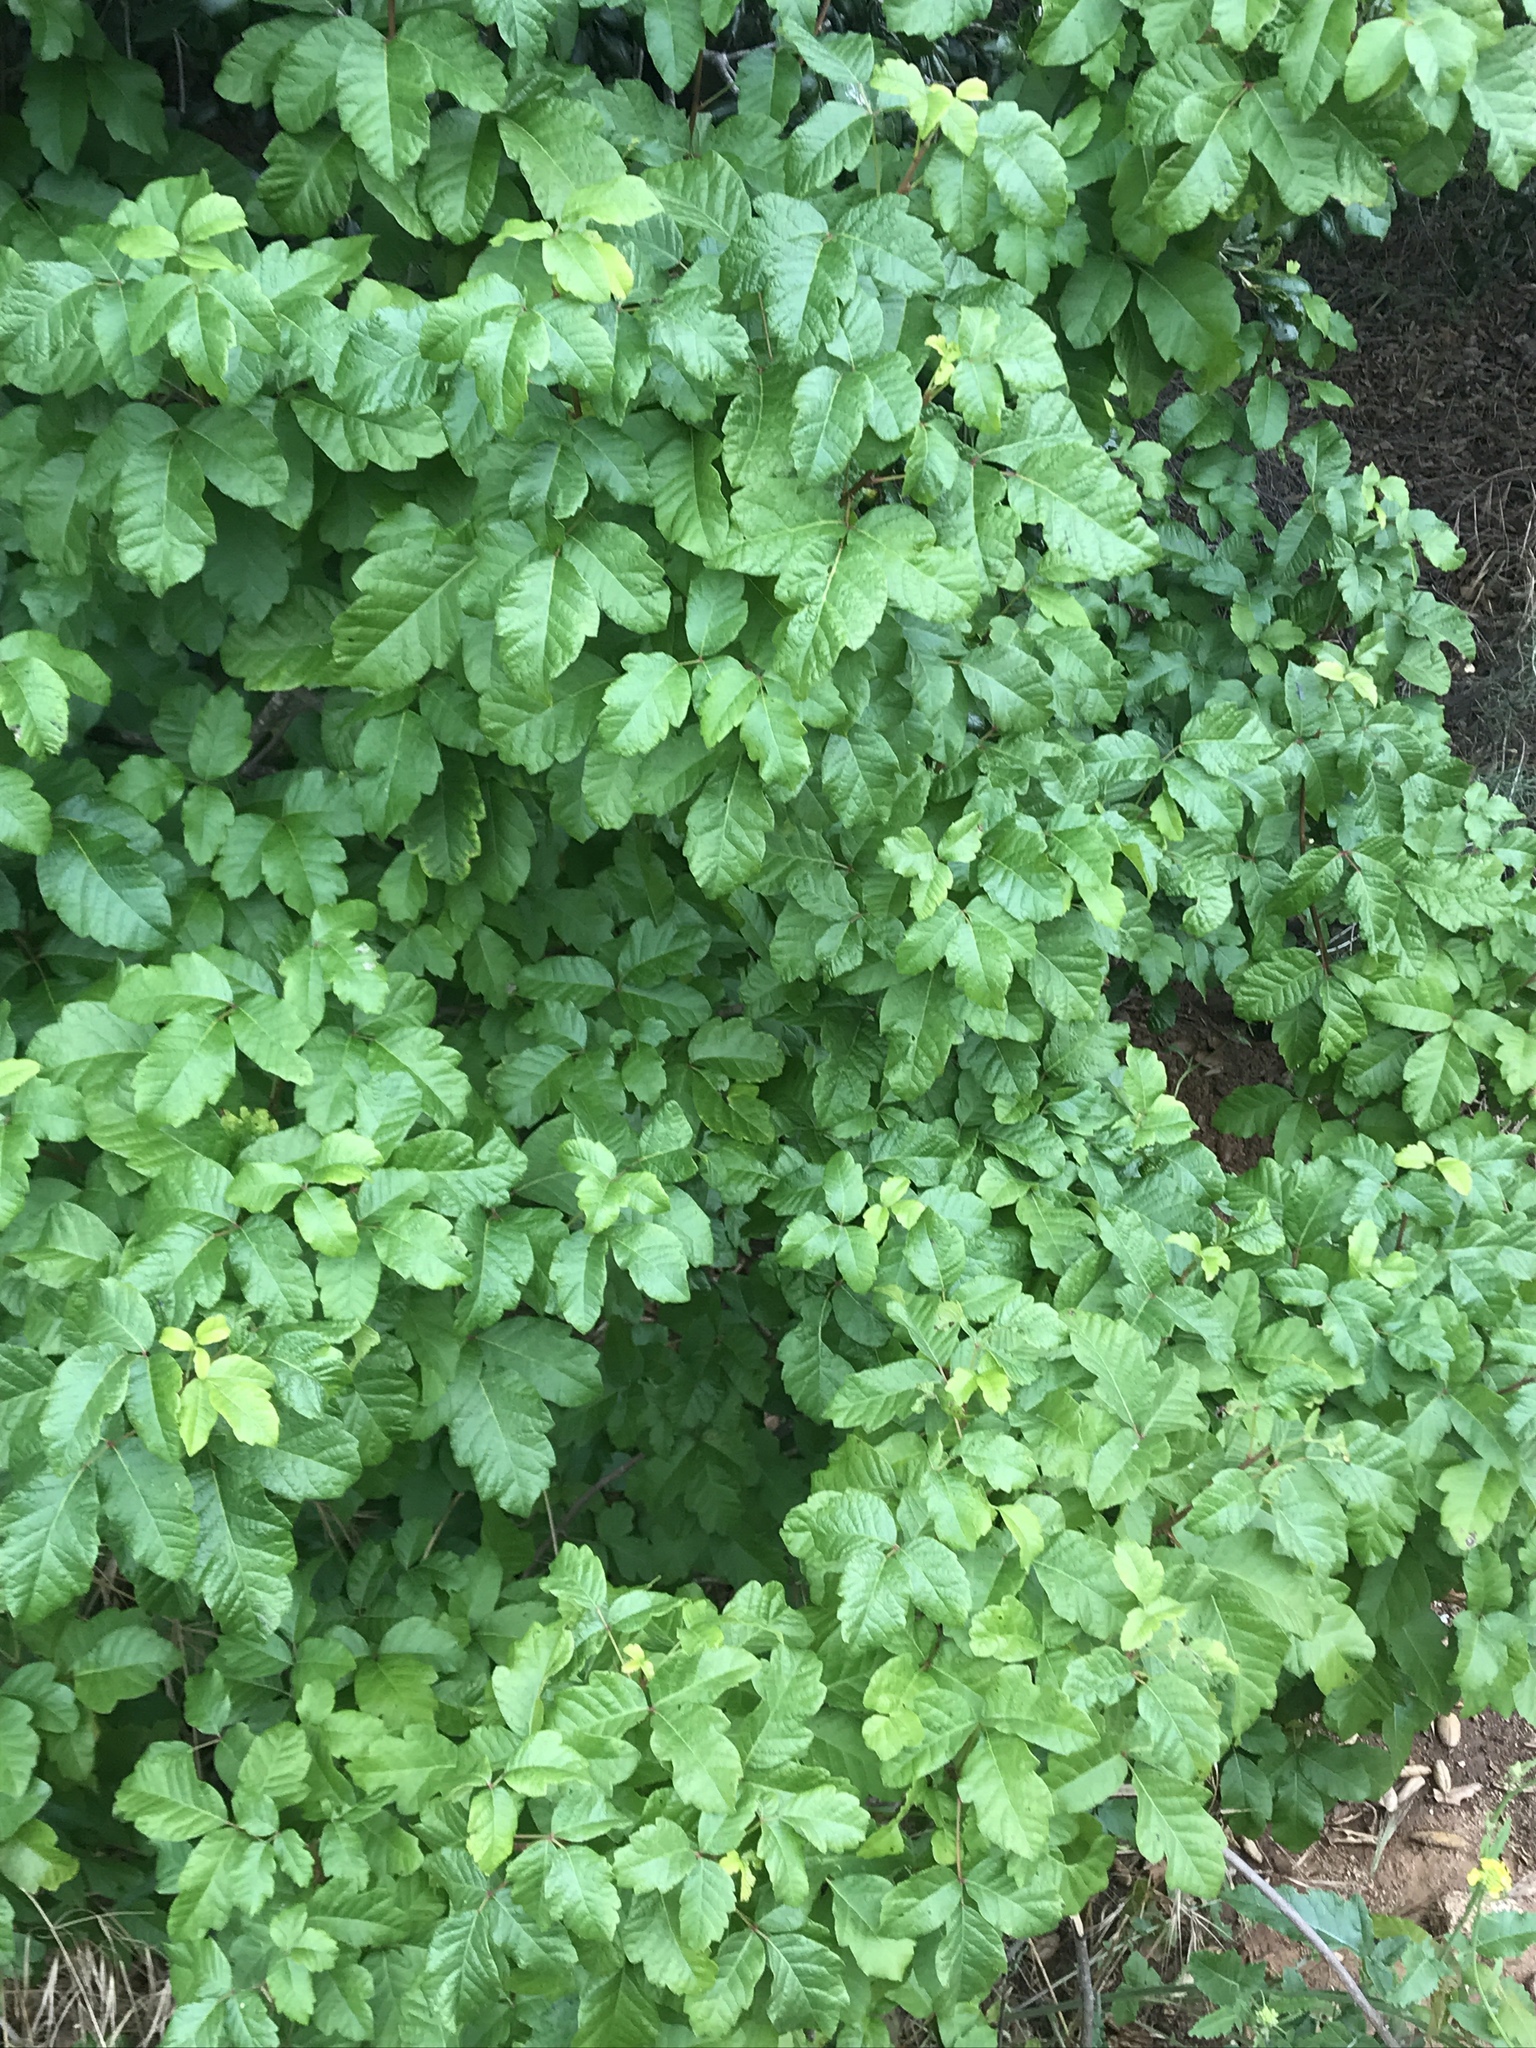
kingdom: Plantae
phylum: Tracheophyta
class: Magnoliopsida
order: Sapindales
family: Anacardiaceae
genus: Toxicodendron
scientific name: Toxicodendron diversilobum
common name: Pacific poison-oak
